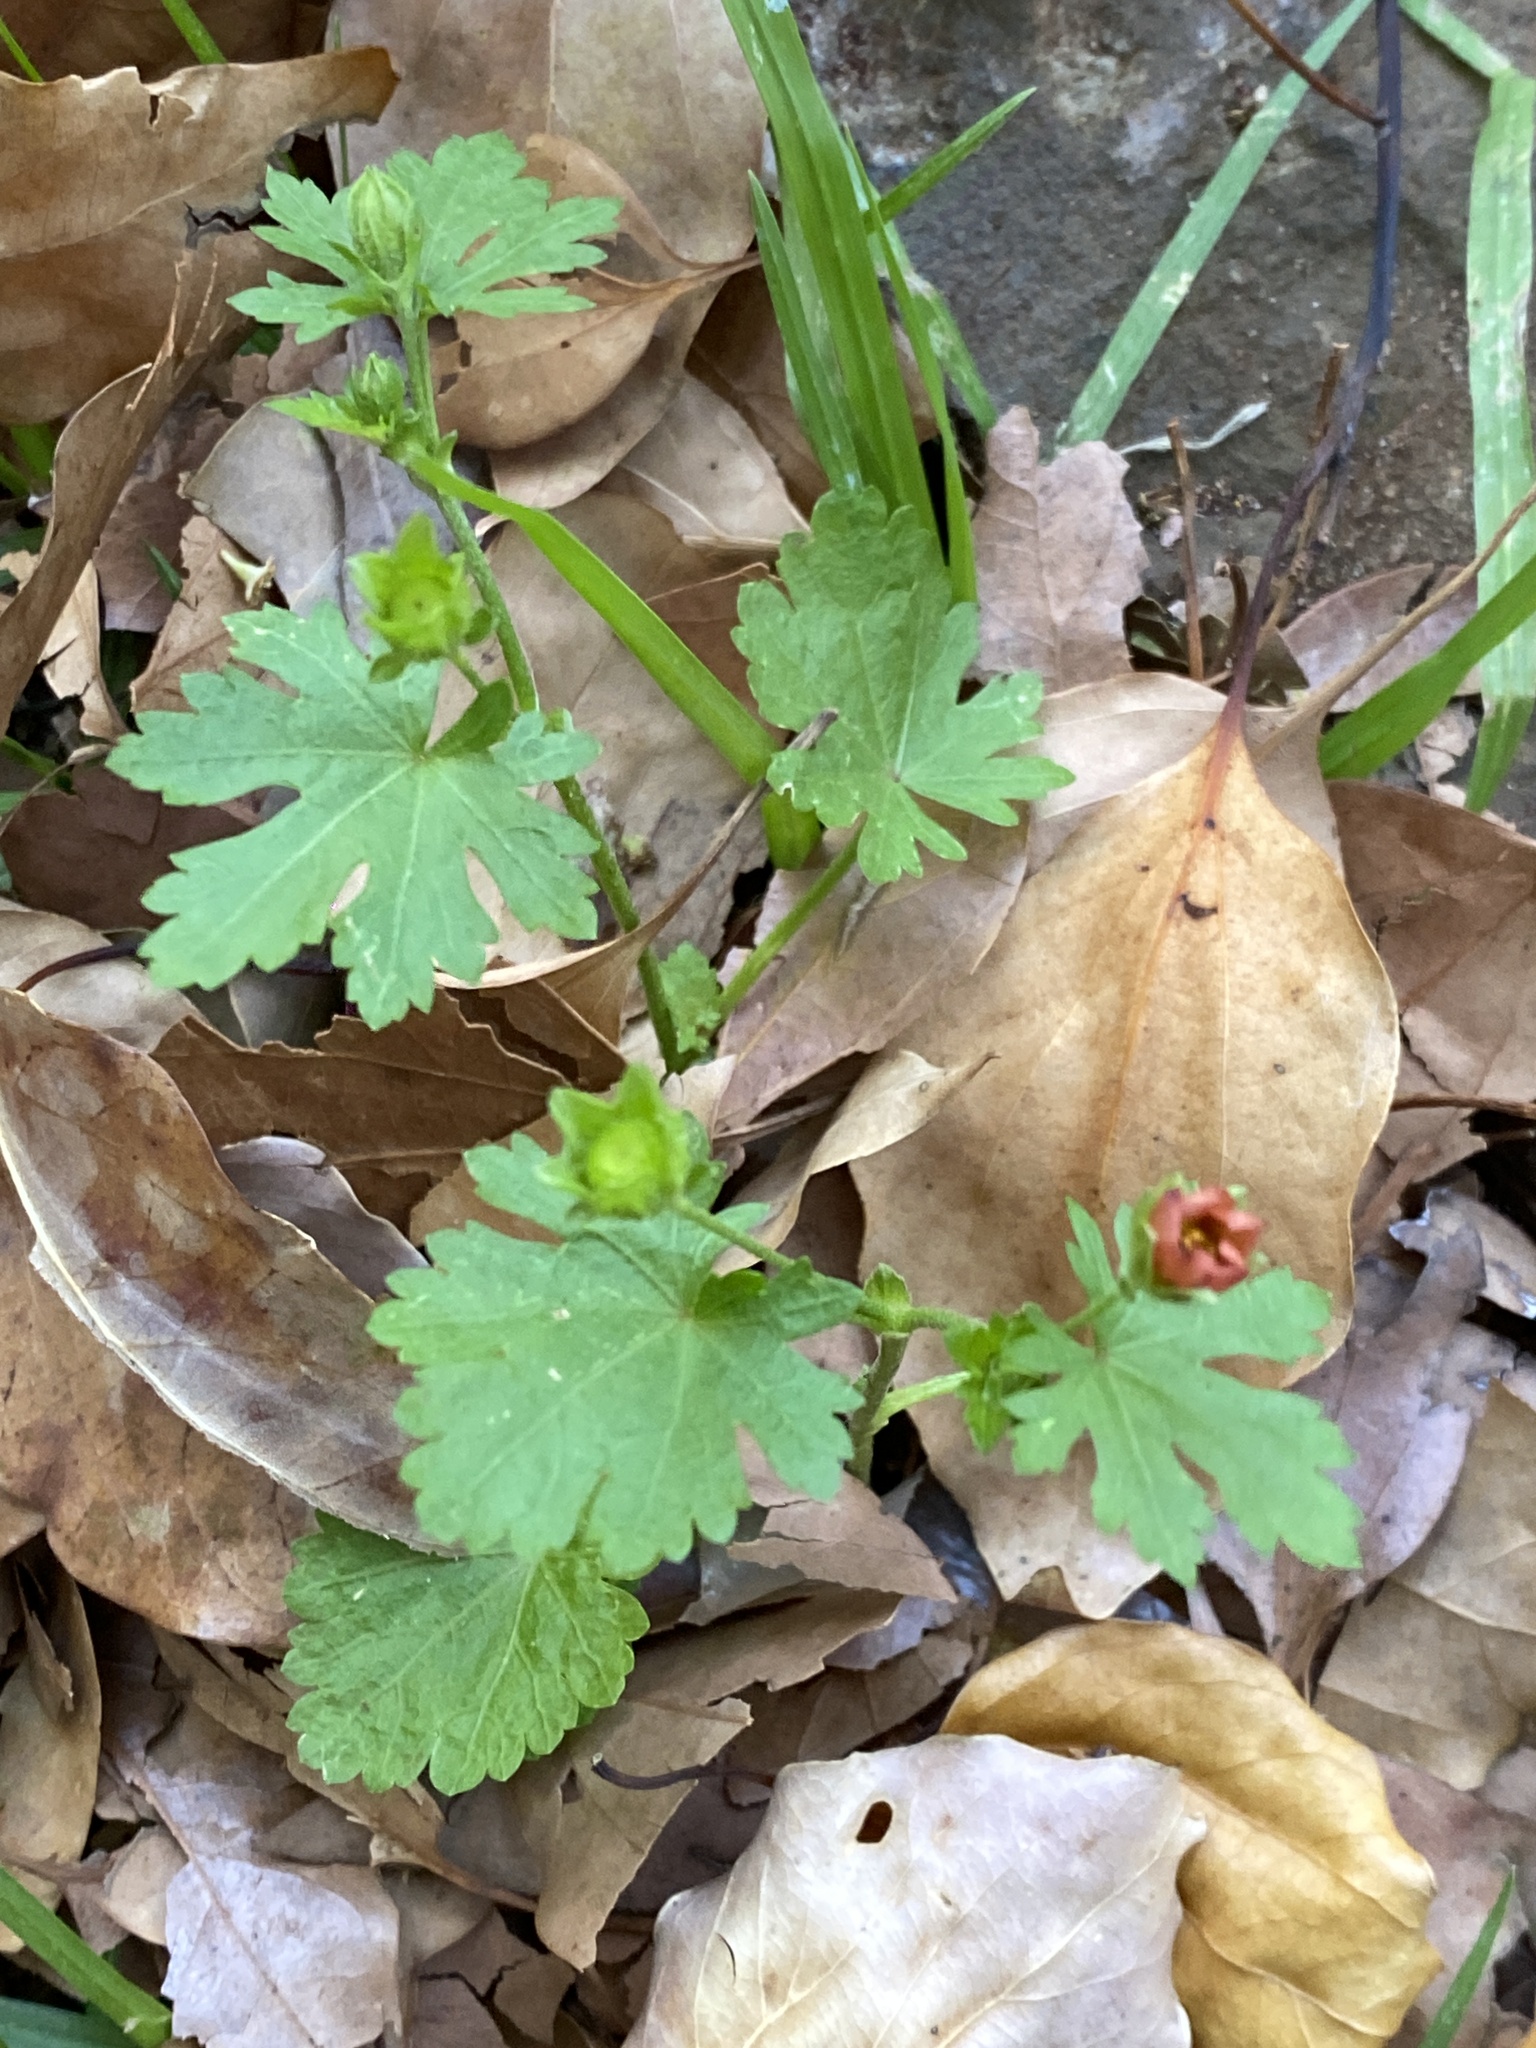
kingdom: Plantae
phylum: Tracheophyta
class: Magnoliopsida
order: Malvales
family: Malvaceae
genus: Modiola
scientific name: Modiola caroliniana
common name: Carolina bristlemallow
